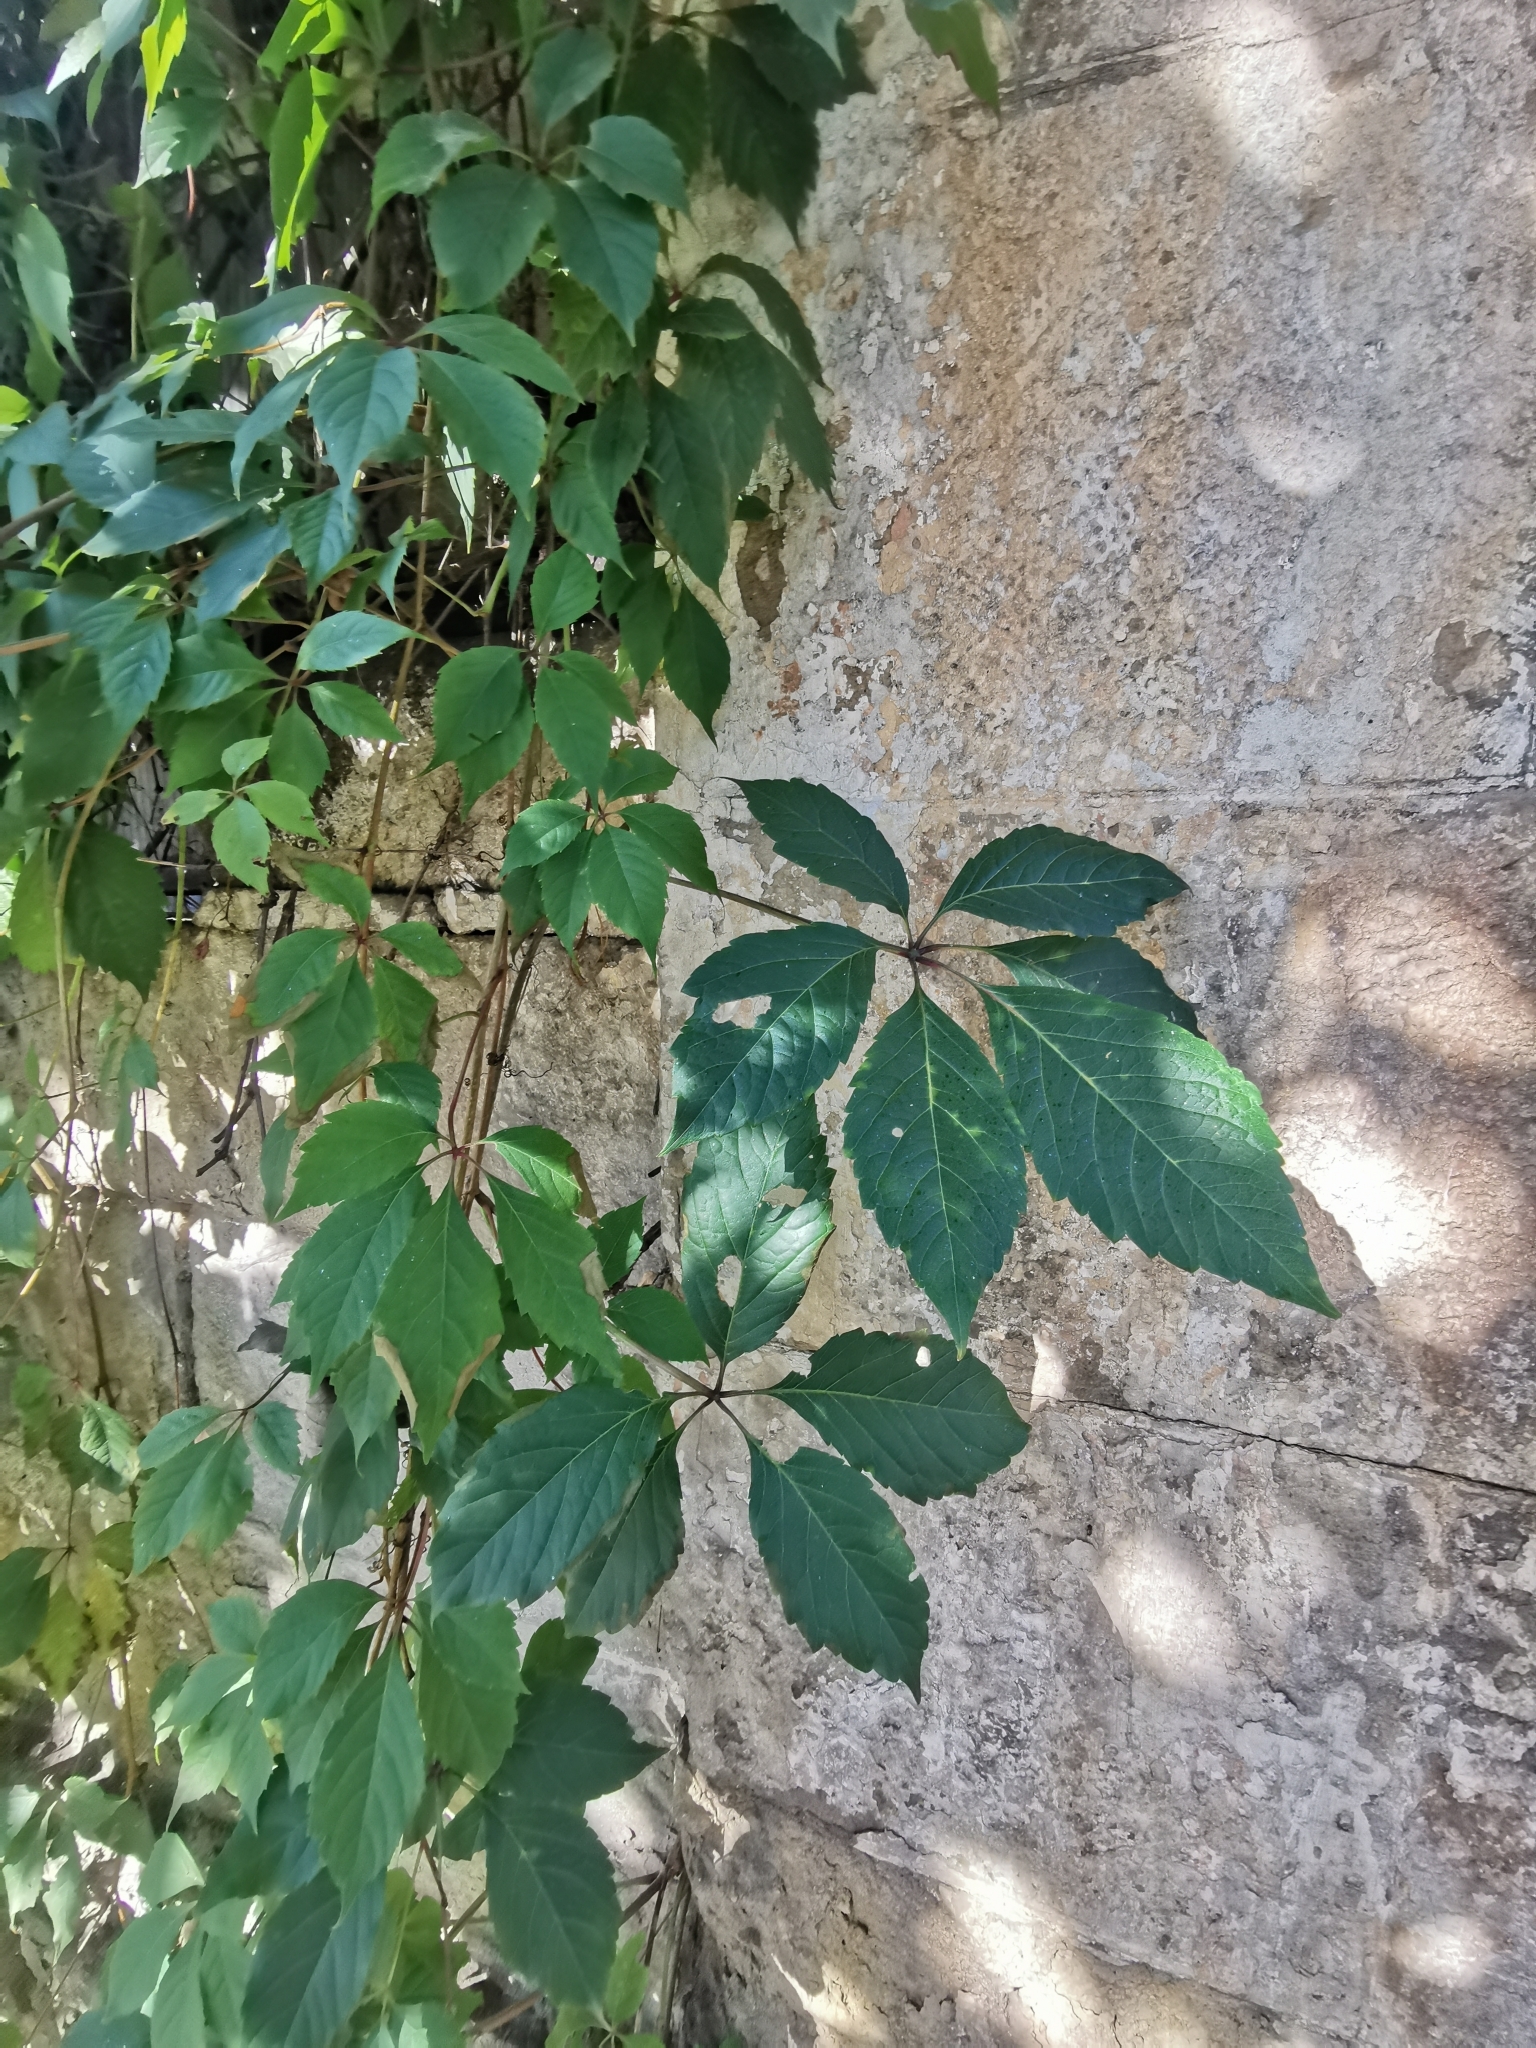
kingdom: Plantae
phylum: Tracheophyta
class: Magnoliopsida
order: Vitales
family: Vitaceae
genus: Parthenocissus
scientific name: Parthenocissus inserta
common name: False virginia-creeper
